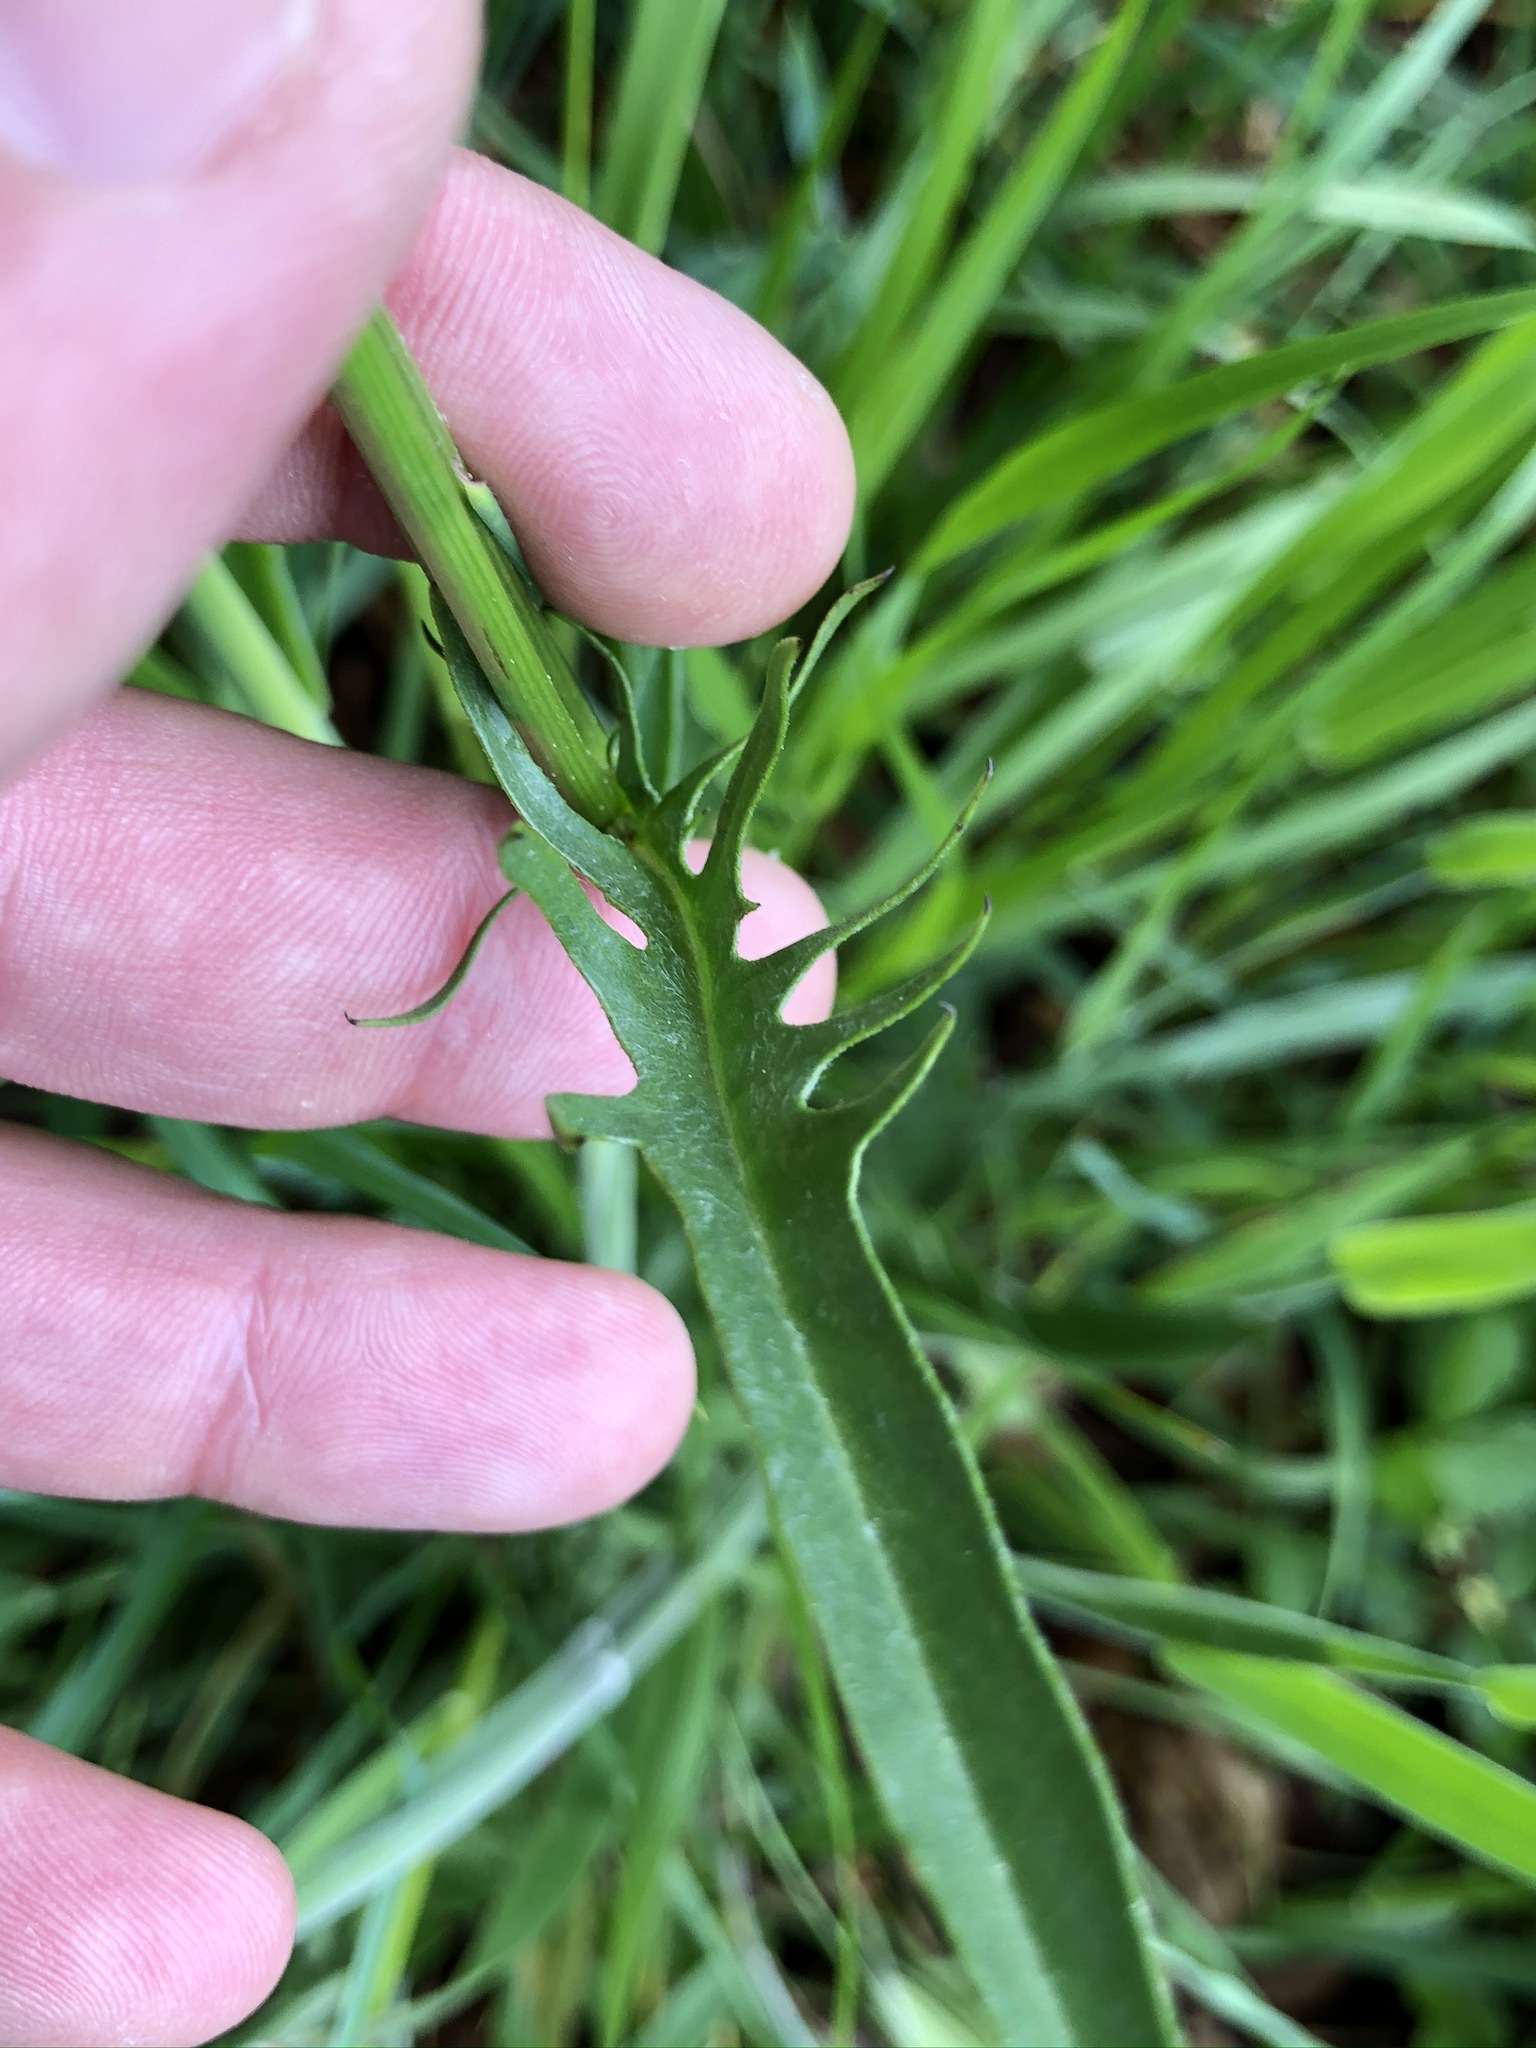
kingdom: Plantae
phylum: Tracheophyta
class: Magnoliopsida
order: Asterales
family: Asteraceae
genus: Crepis
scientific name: Crepis biennis
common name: Rough hawk's-beard
